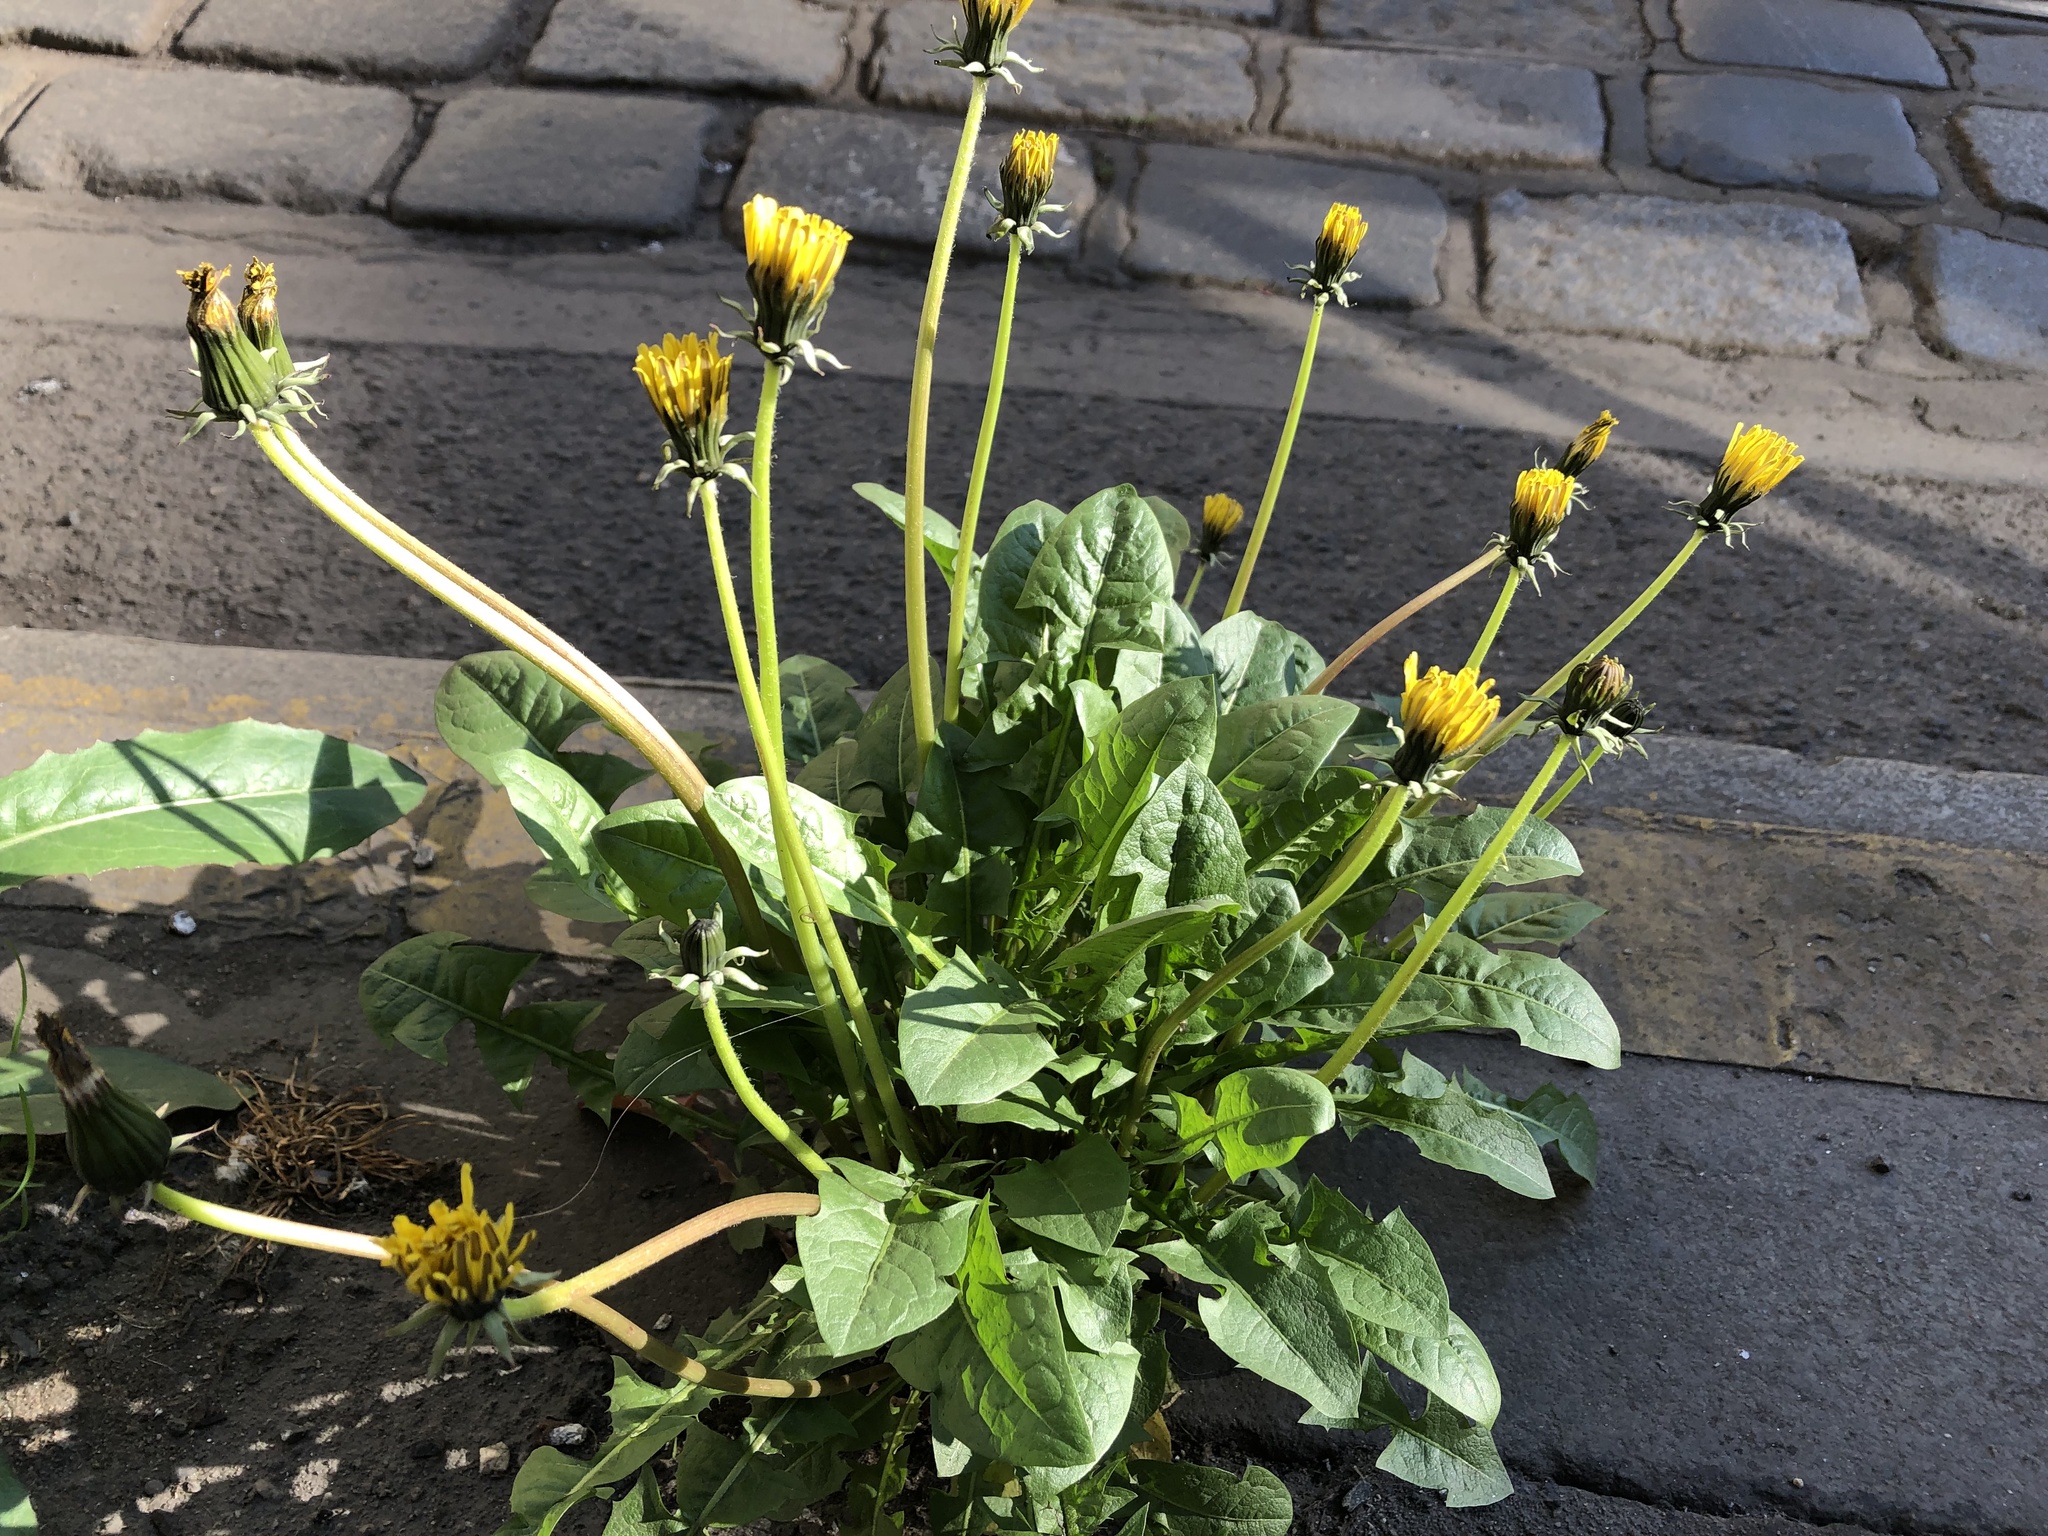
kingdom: Plantae
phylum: Tracheophyta
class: Magnoliopsida
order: Asterales
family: Asteraceae
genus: Taraxacum
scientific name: Taraxacum officinale
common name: Common dandelion
